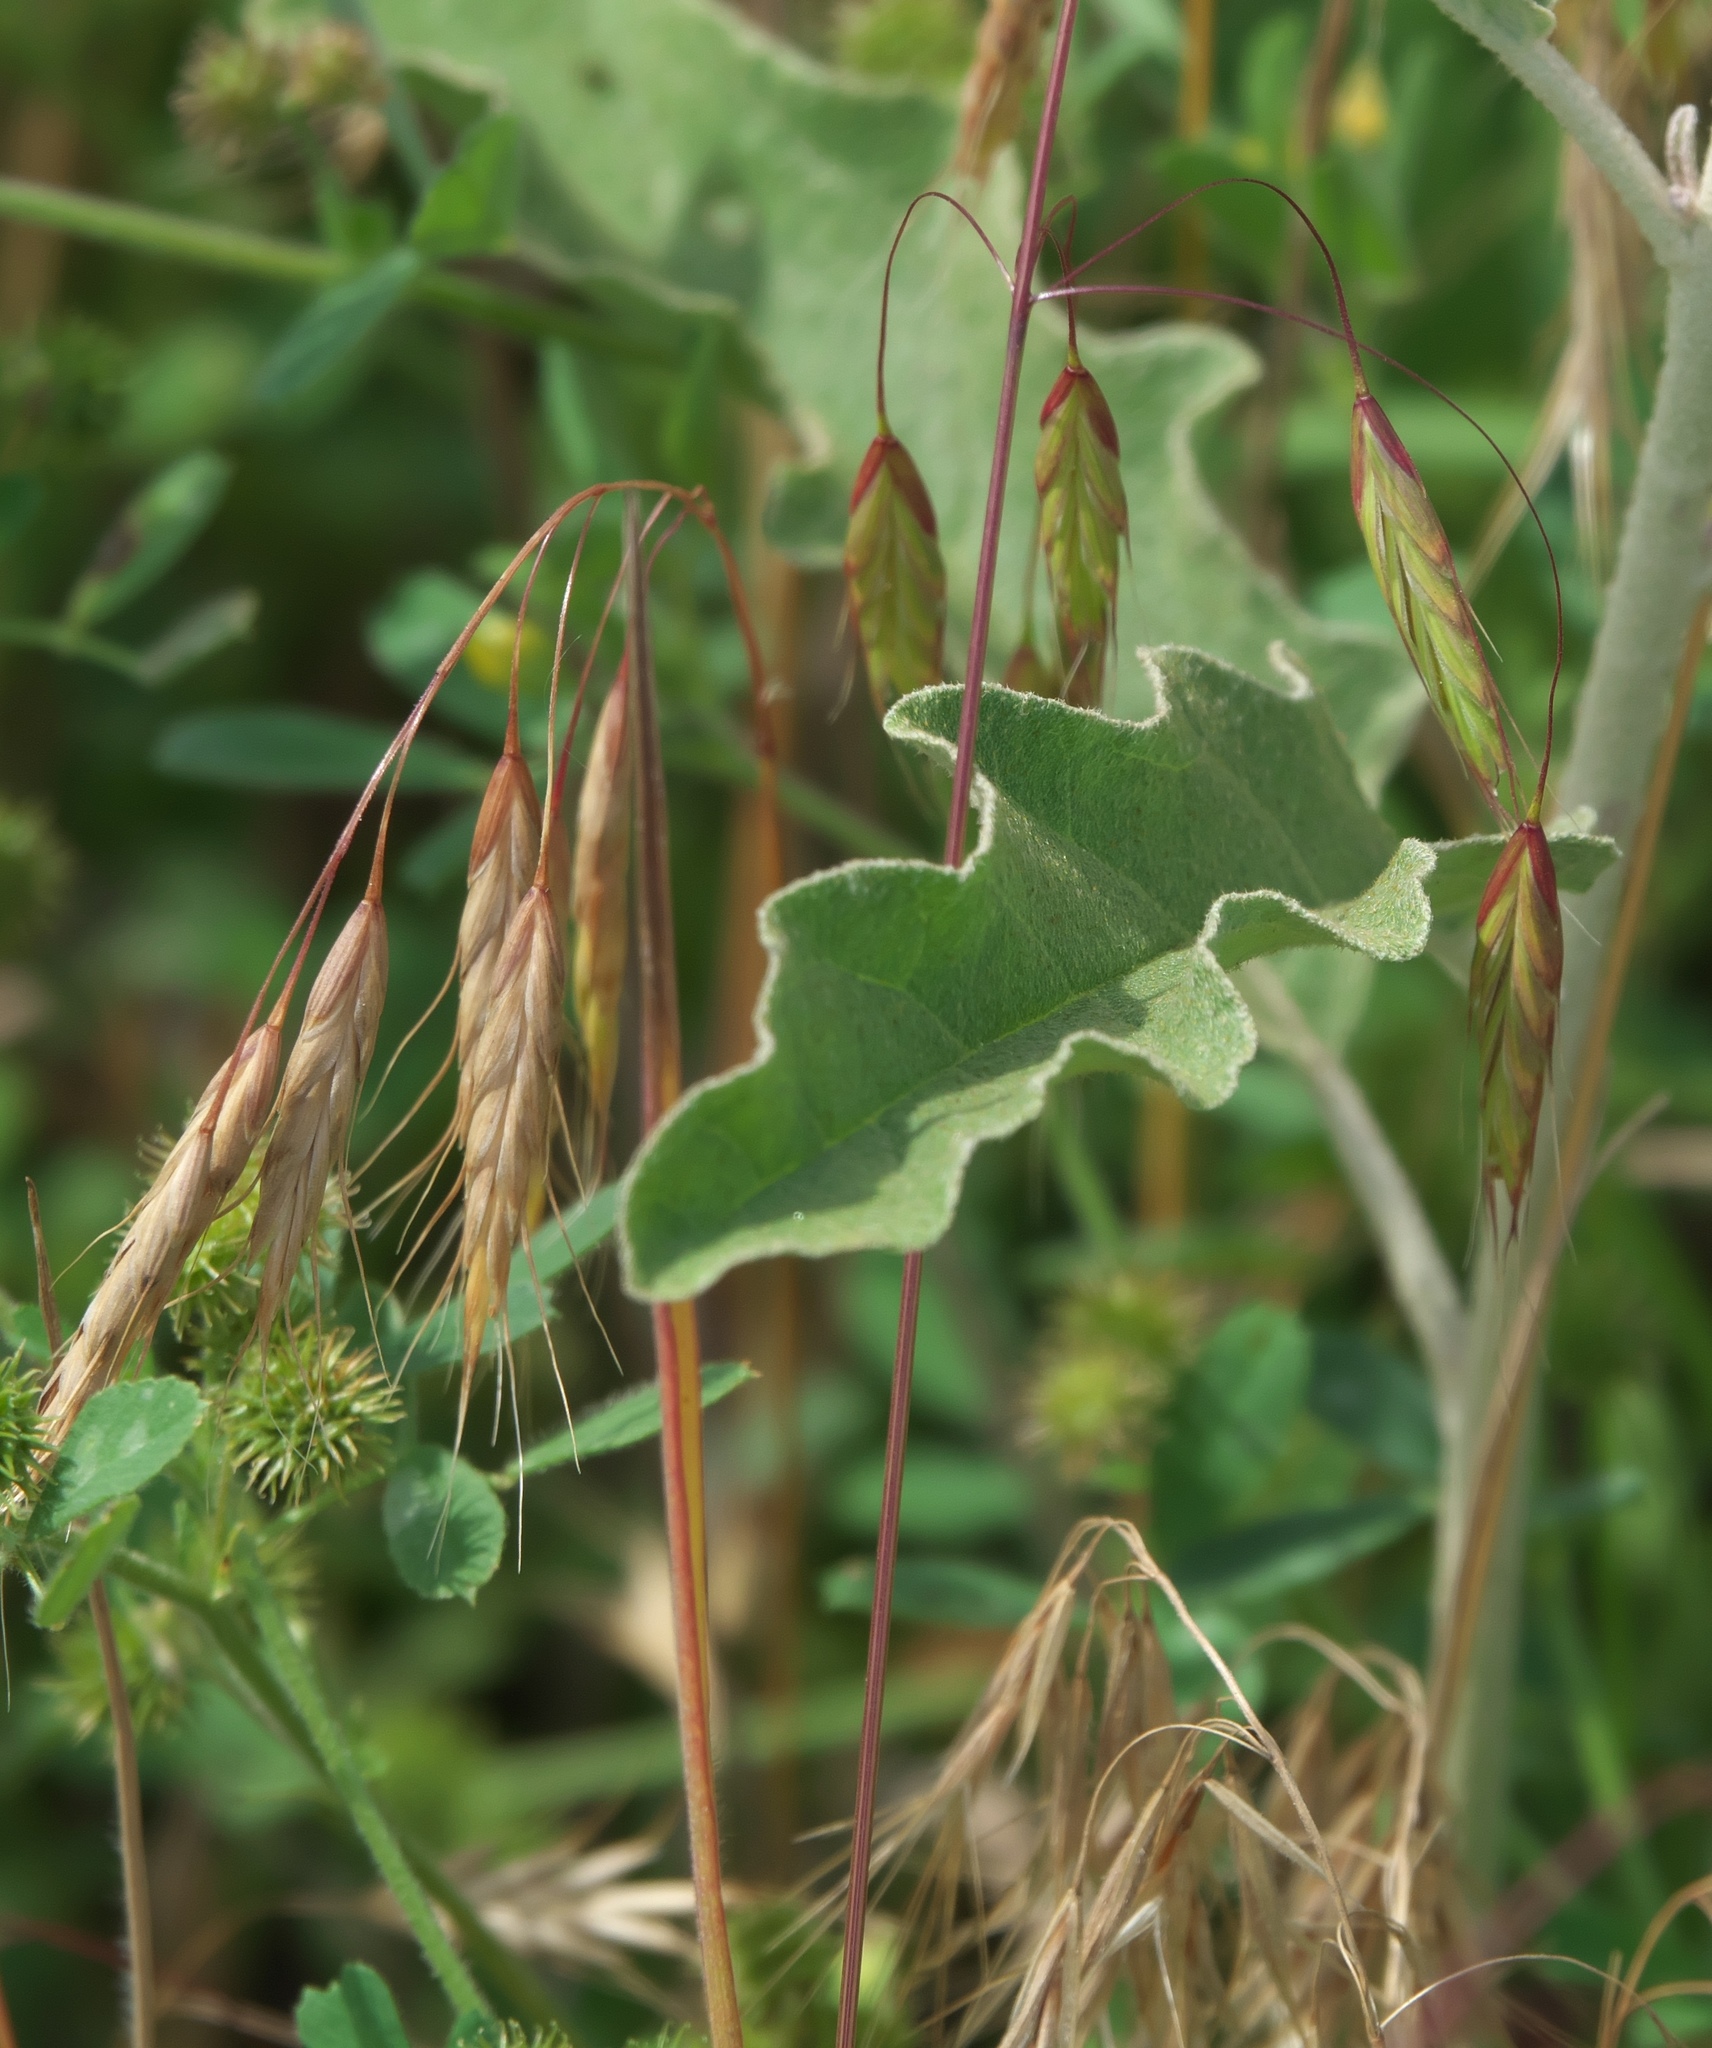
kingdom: Plantae
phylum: Tracheophyta
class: Liliopsida
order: Poales
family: Poaceae
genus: Bromus
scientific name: Bromus japonicus
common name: Japanese brome
